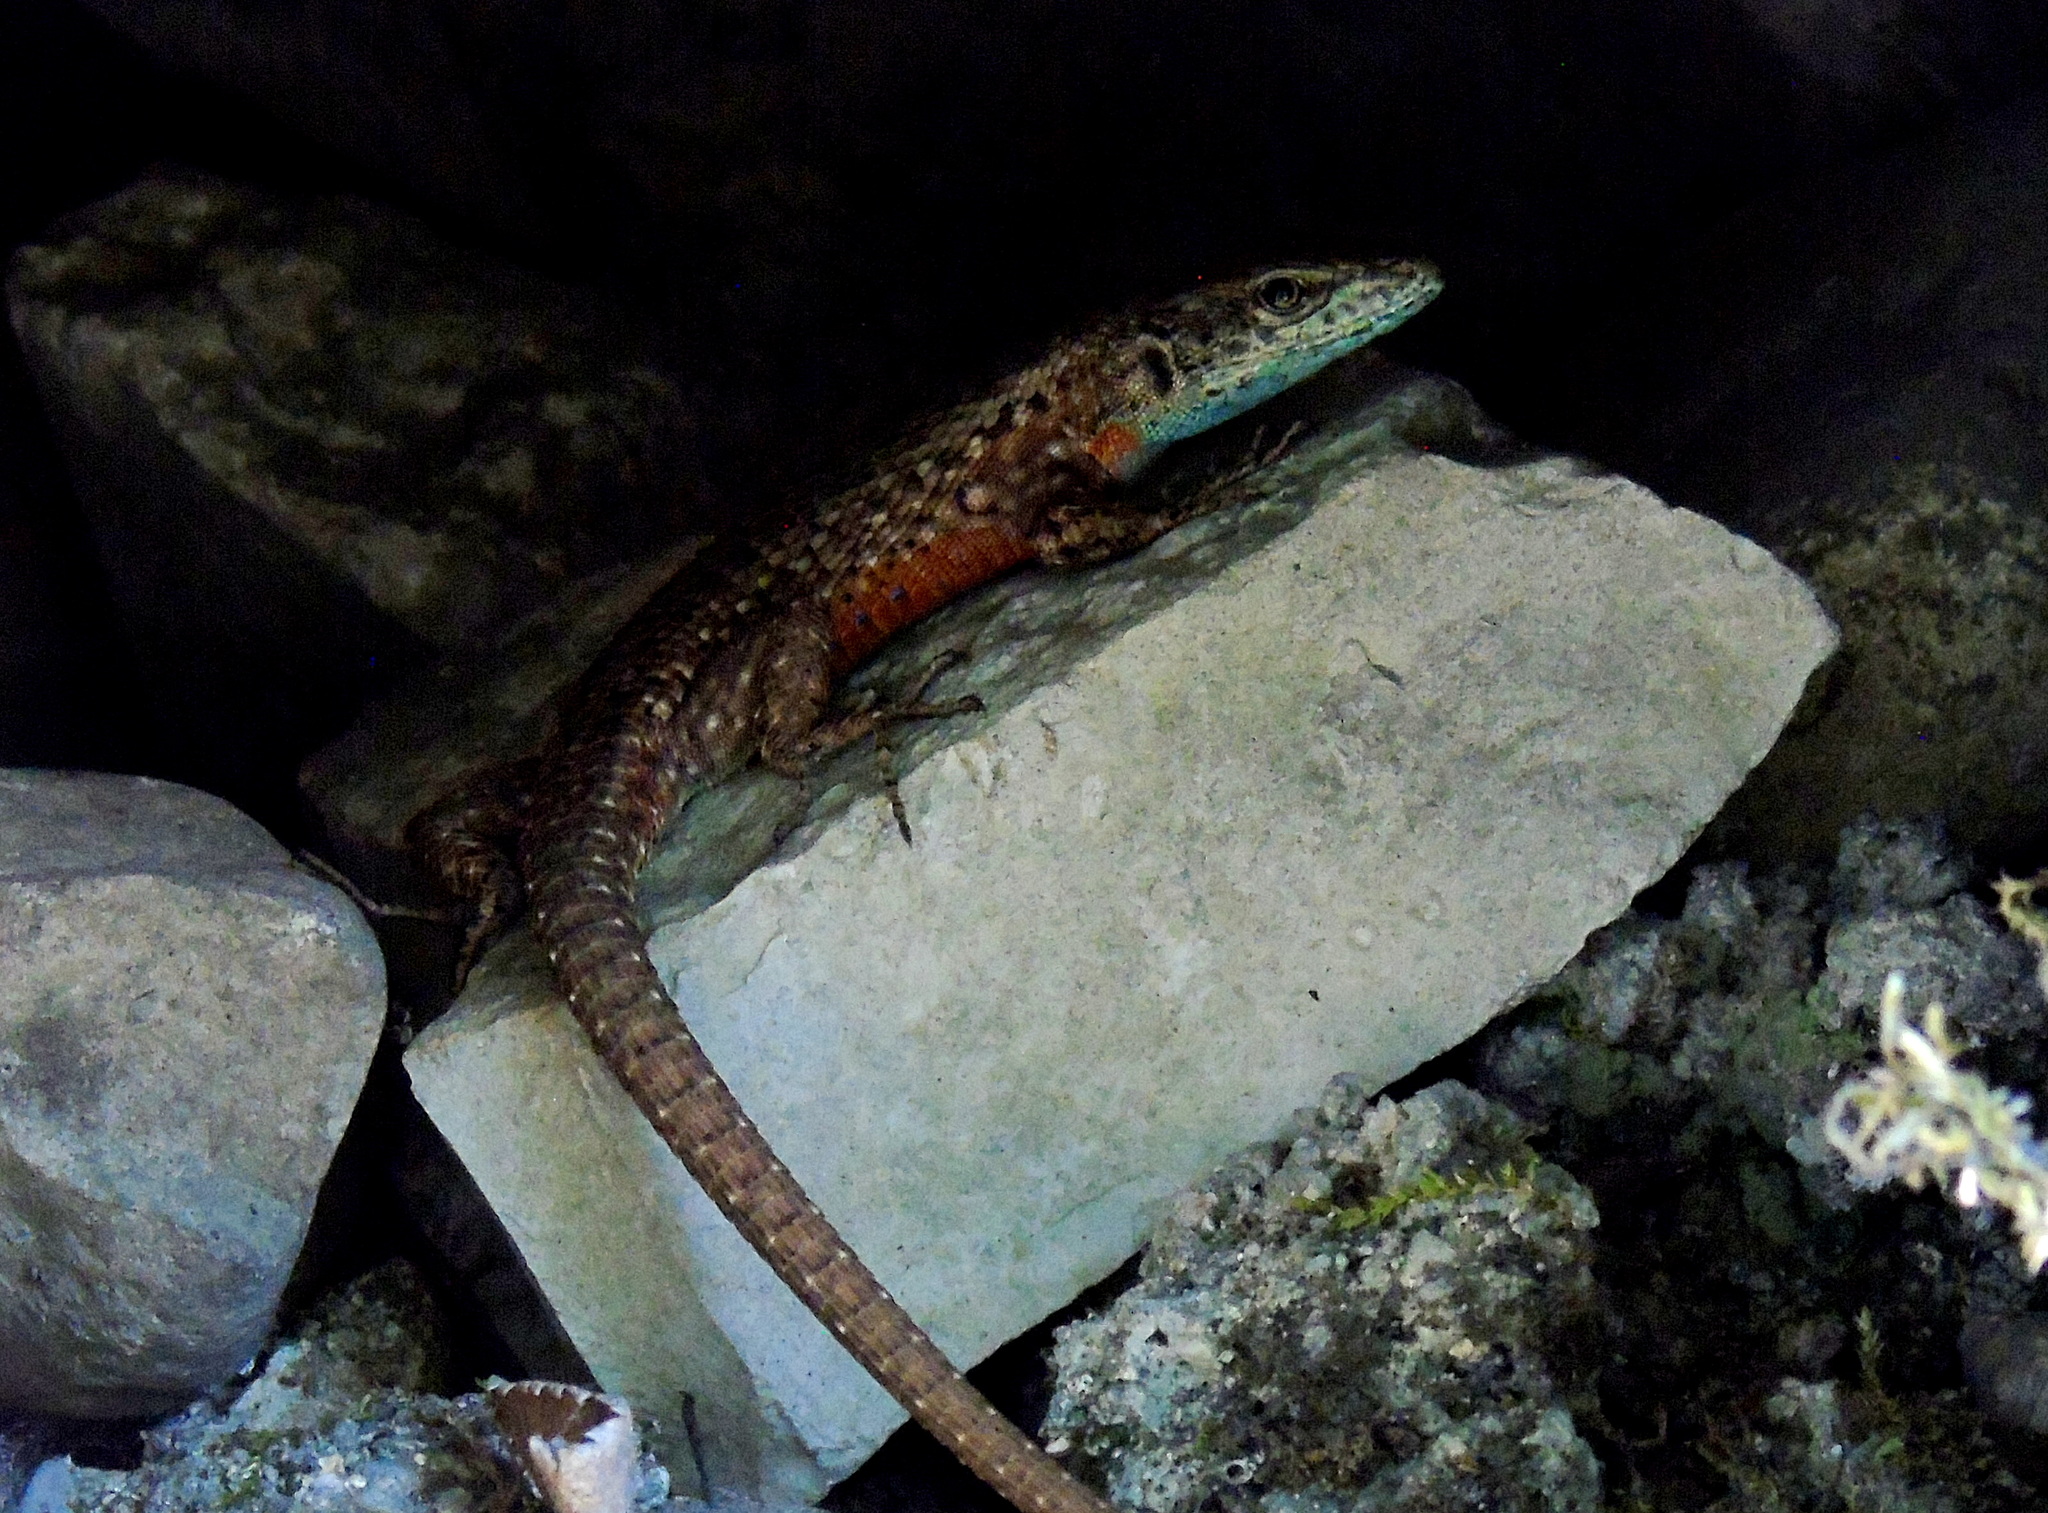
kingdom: Animalia
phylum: Chordata
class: Squamata
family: Lacertidae
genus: Algyroides
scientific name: Algyroides nigropunctatus
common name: Blue-throated keeled lizard
